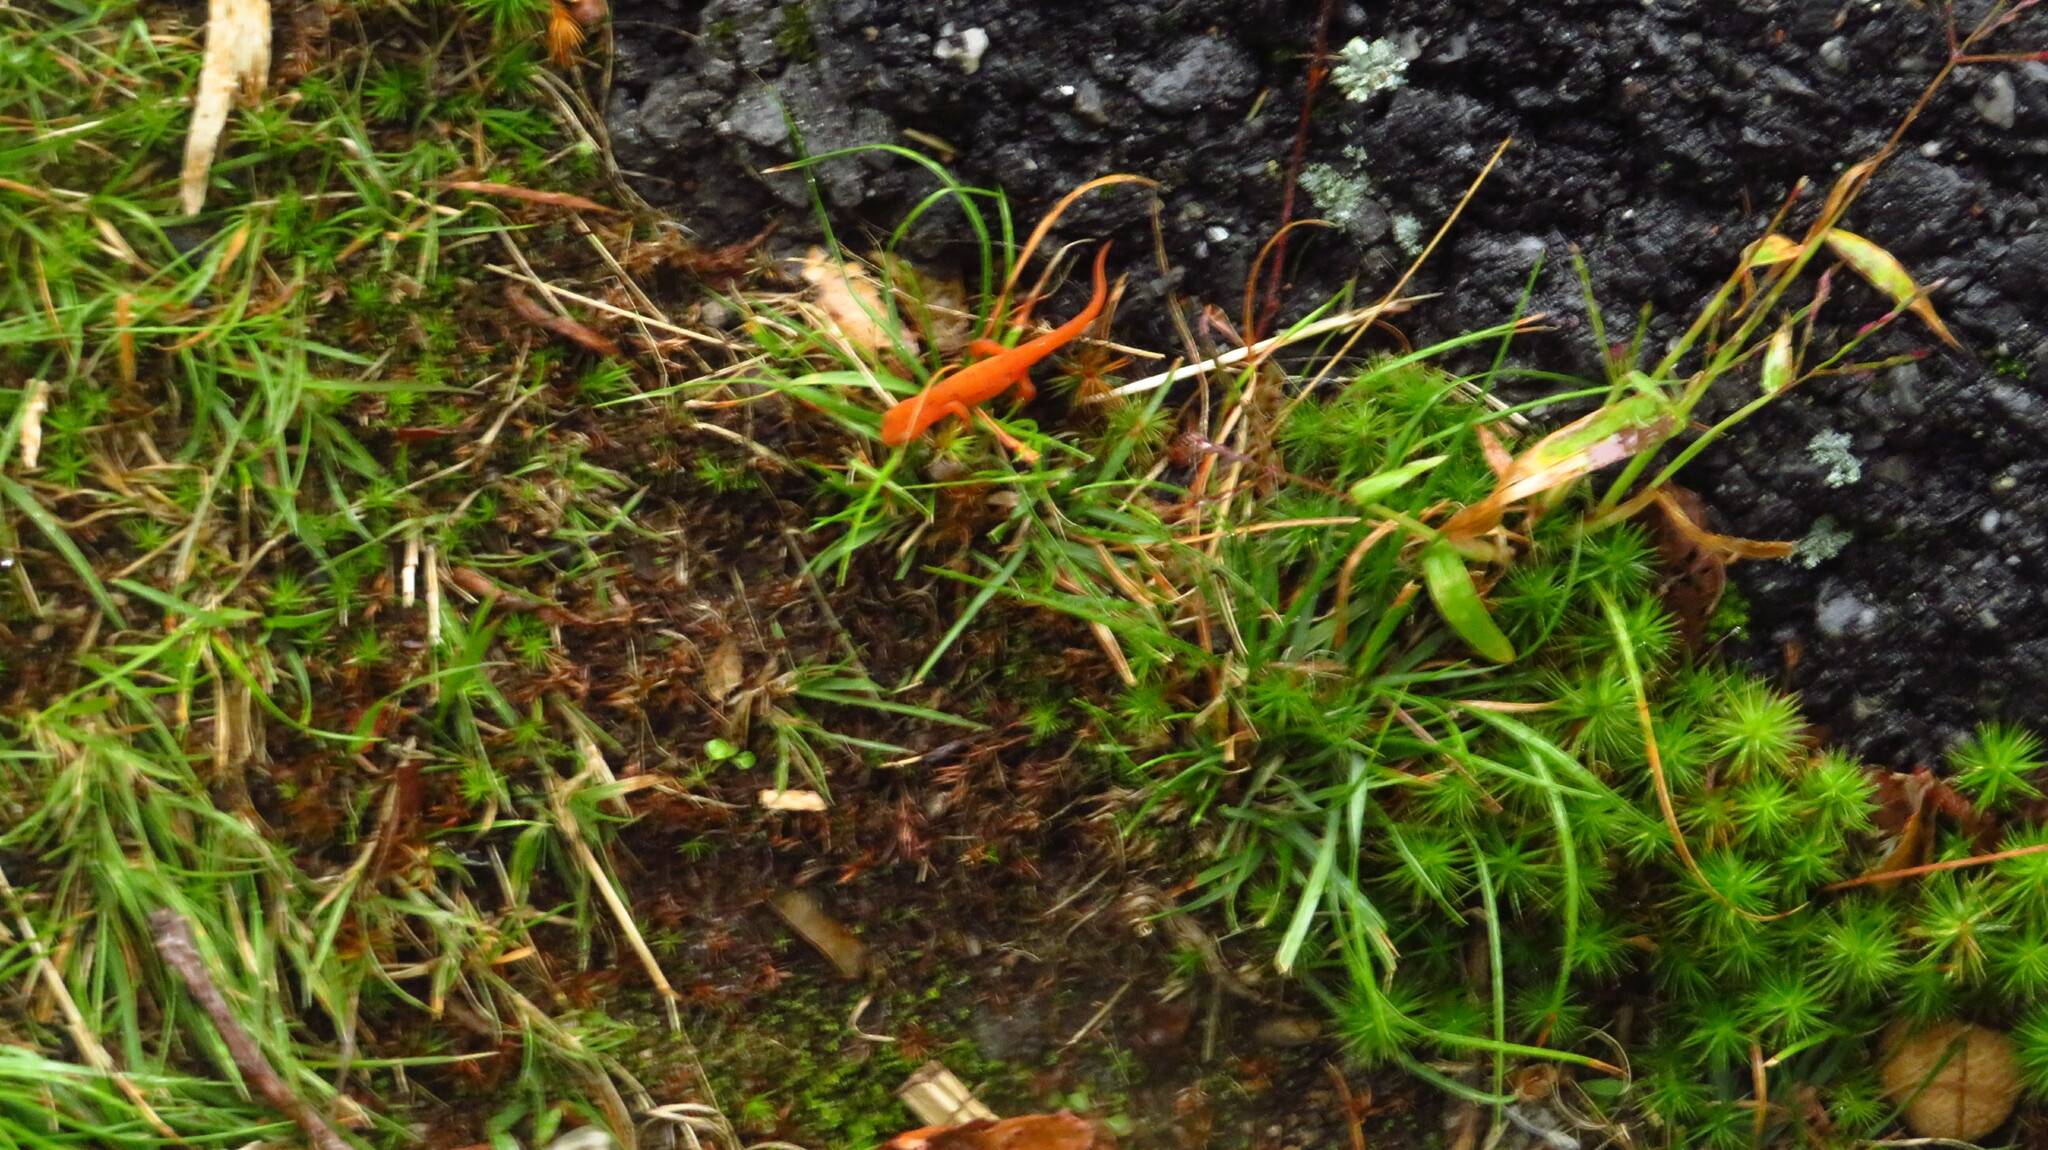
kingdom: Animalia
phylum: Chordata
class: Amphibia
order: Caudata
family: Salamandridae
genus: Notophthalmus
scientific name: Notophthalmus viridescens
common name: Eastern newt
